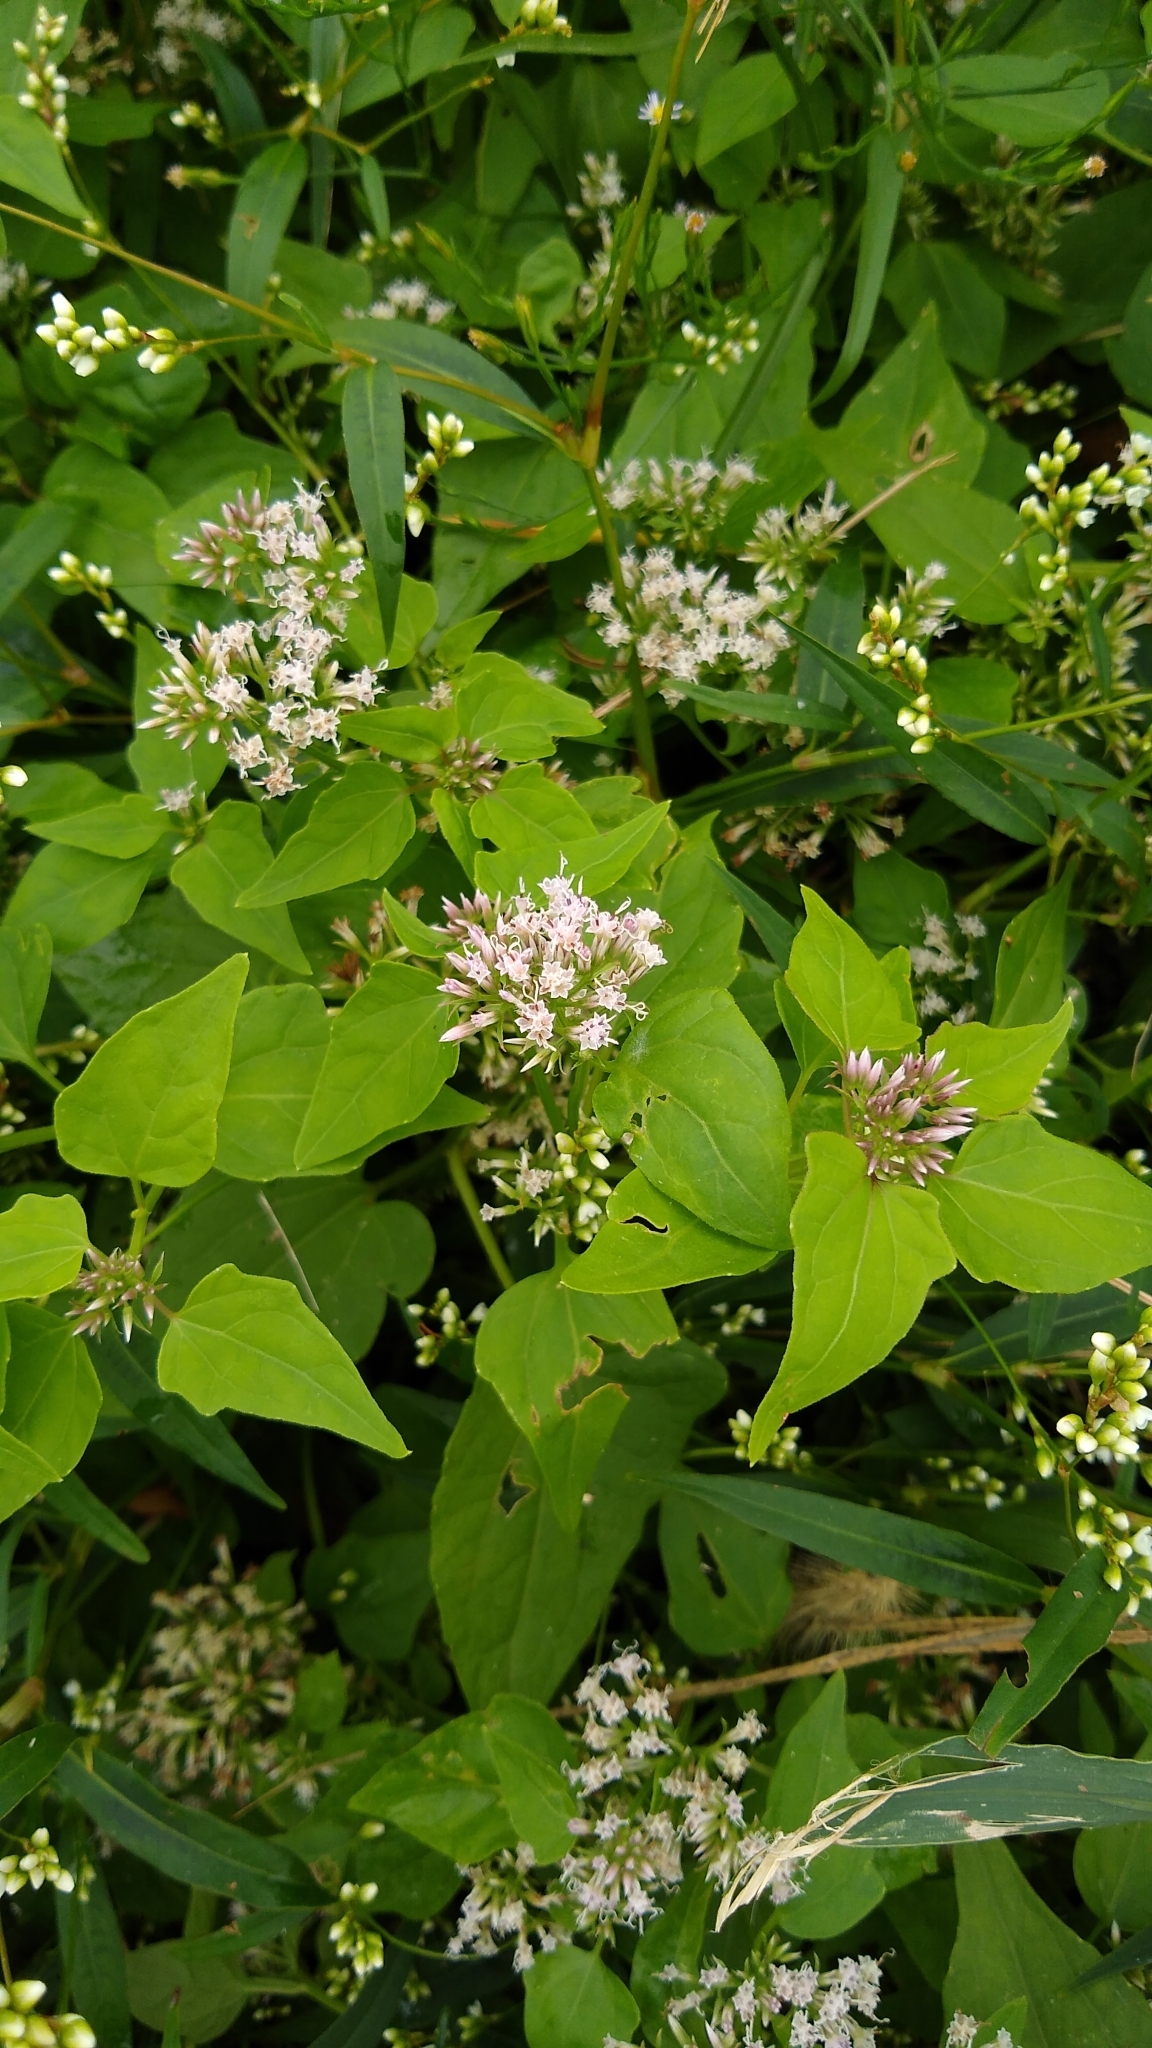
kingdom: Plantae
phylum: Tracheophyta
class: Magnoliopsida
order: Asterales
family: Asteraceae
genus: Mikania
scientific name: Mikania scandens
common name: Climbing hempvine
